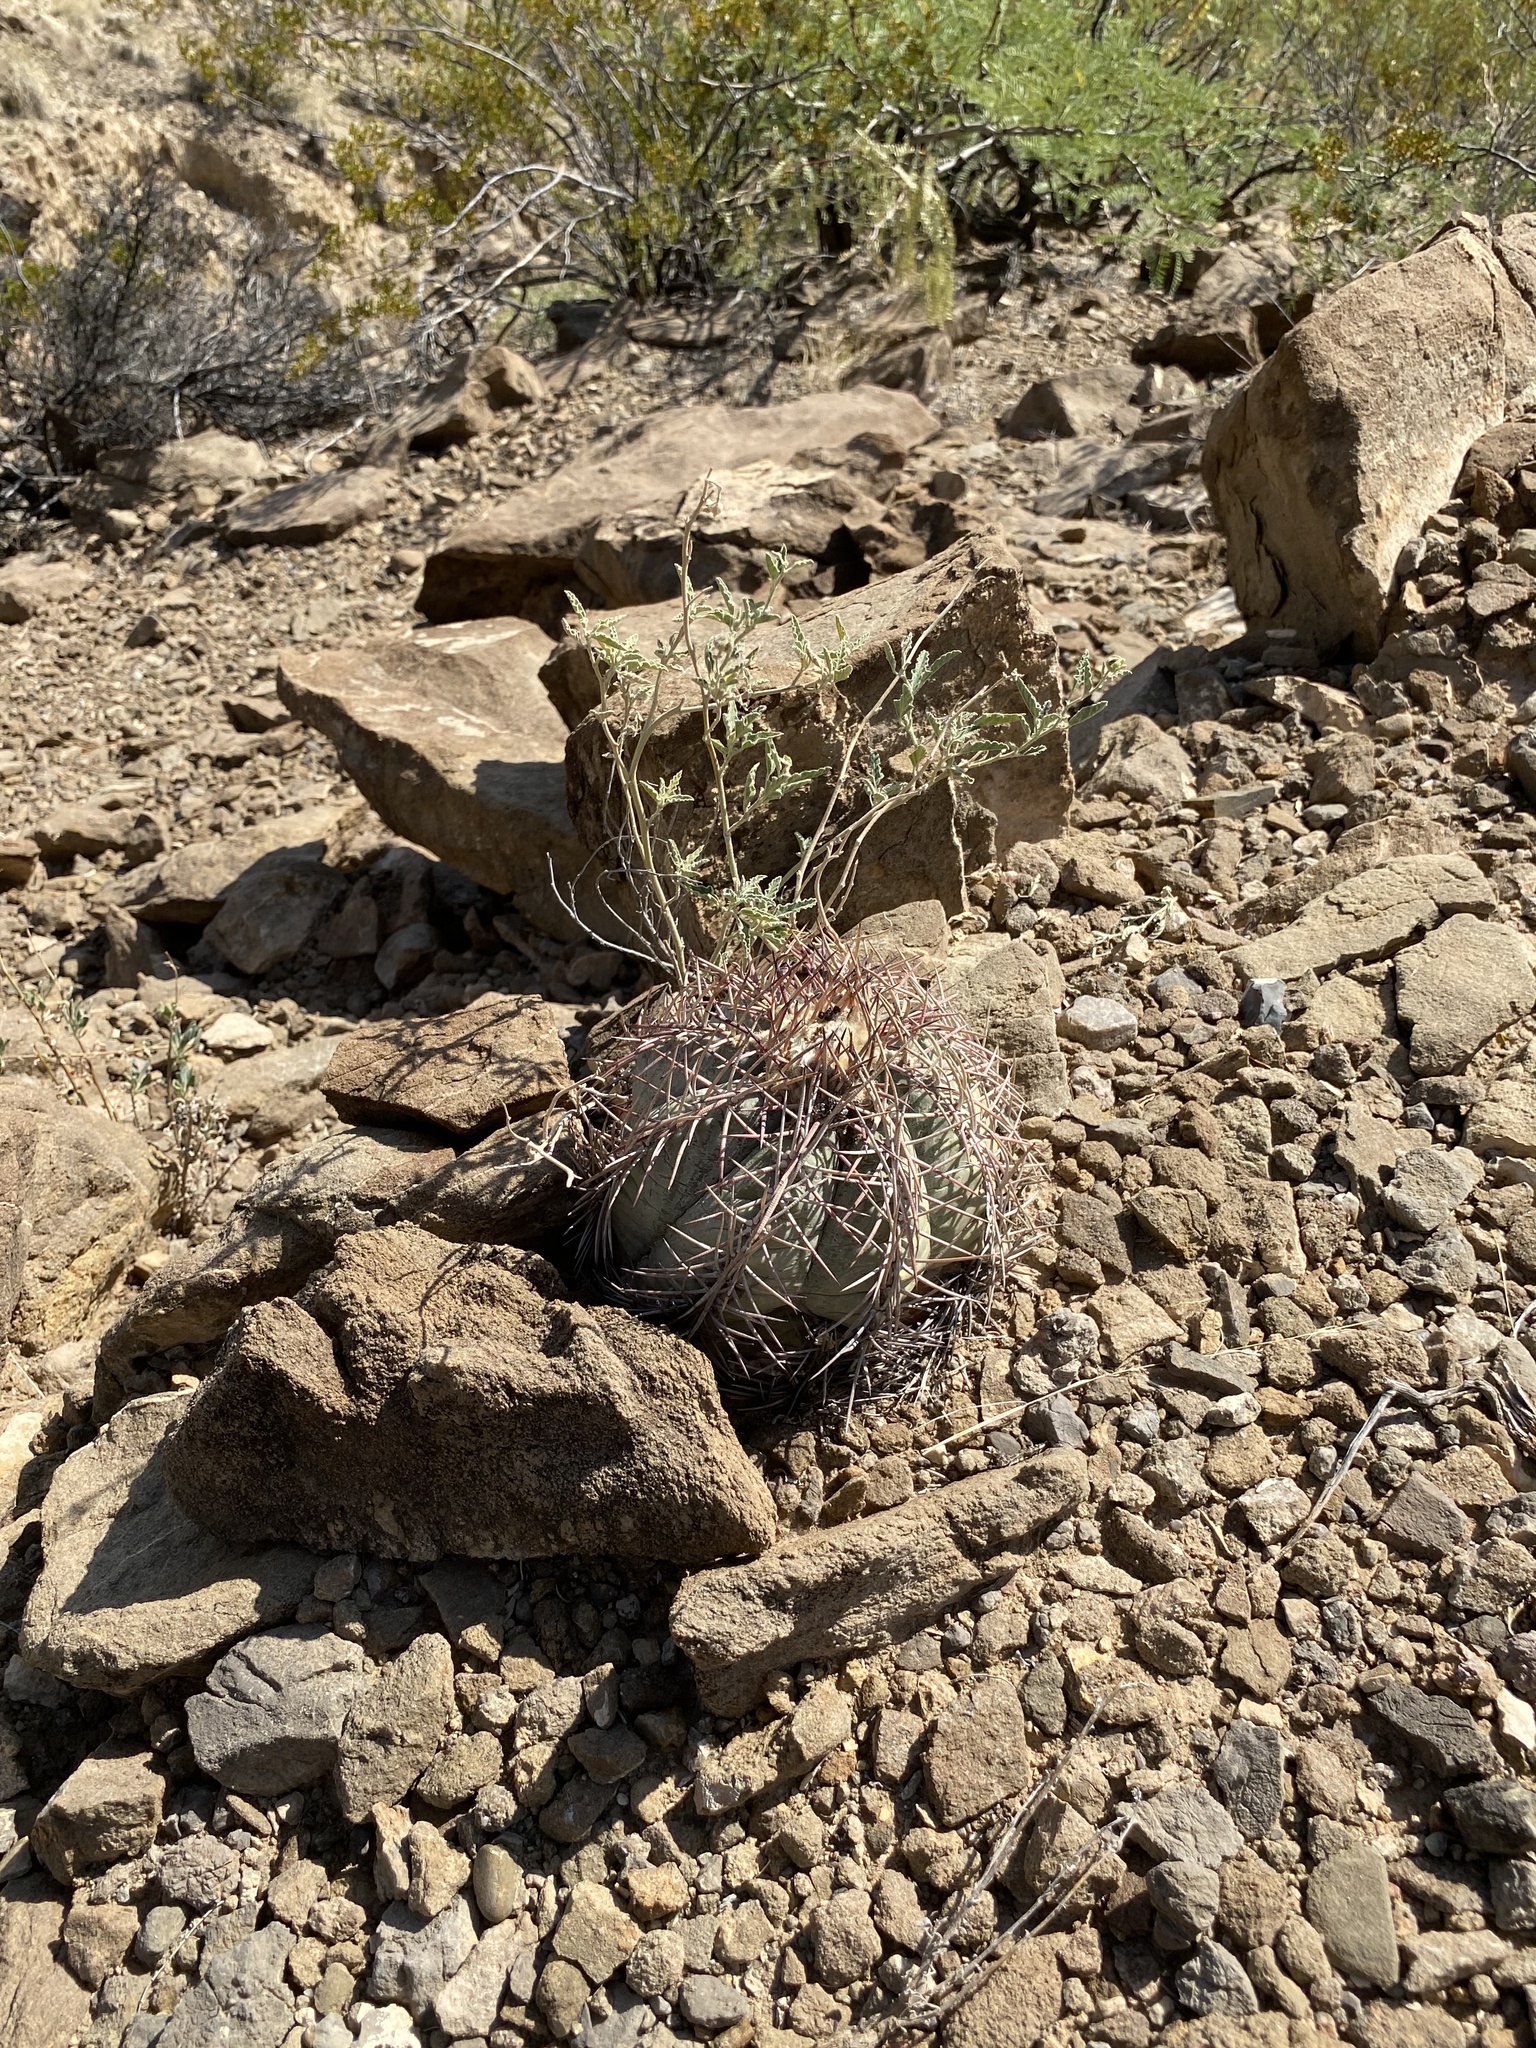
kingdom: Plantae
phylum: Tracheophyta
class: Magnoliopsida
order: Caryophyllales
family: Cactaceae
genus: Echinocactus
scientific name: Echinocactus horizonthalonius
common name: Devilshead
